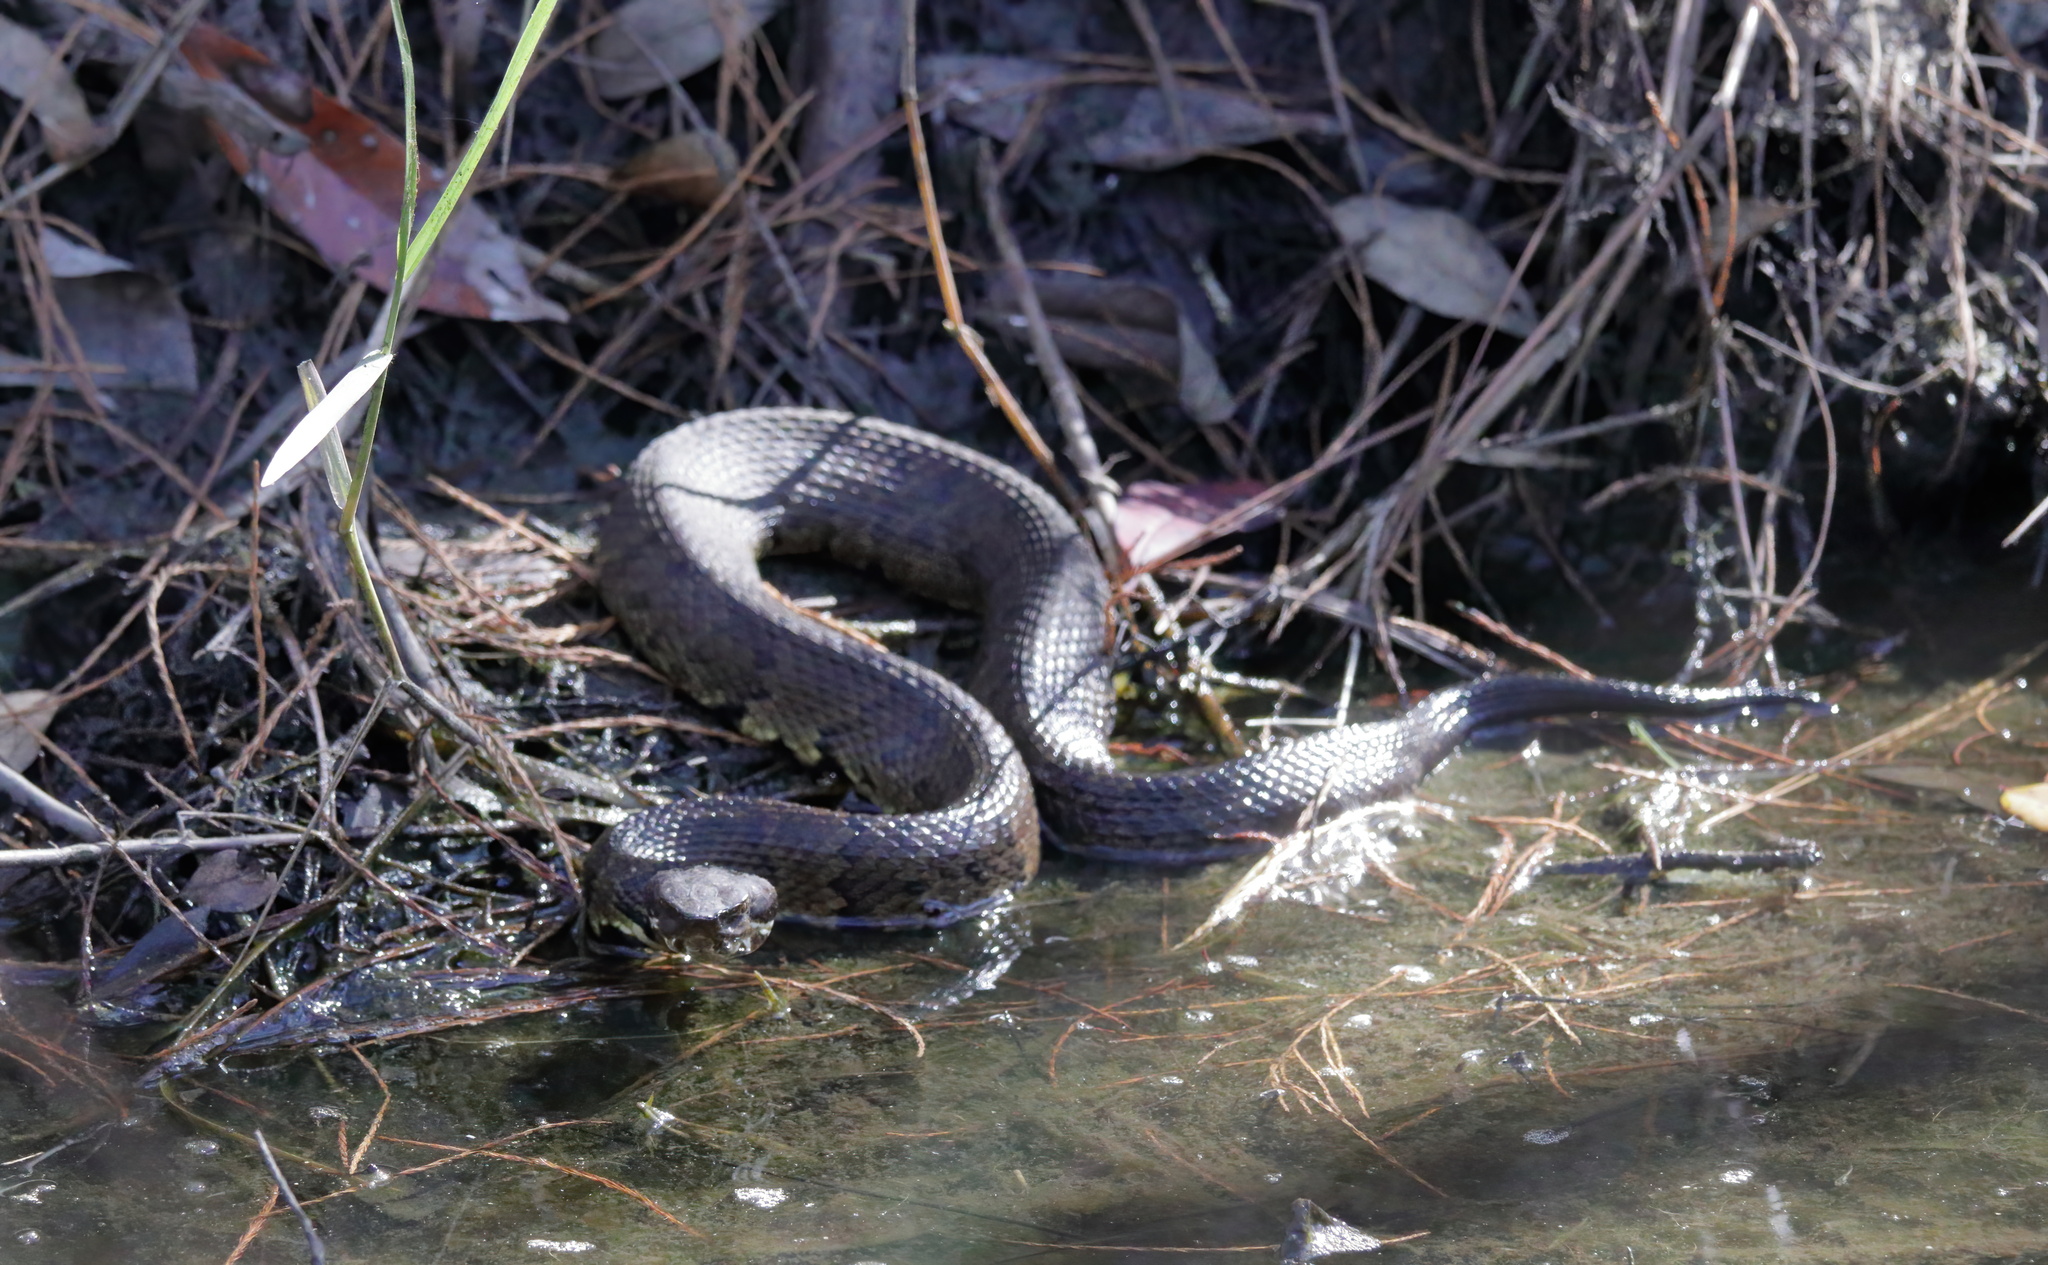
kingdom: Animalia
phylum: Chordata
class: Squamata
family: Viperidae
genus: Agkistrodon
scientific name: Agkistrodon piscivorus
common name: Cottonmouth
